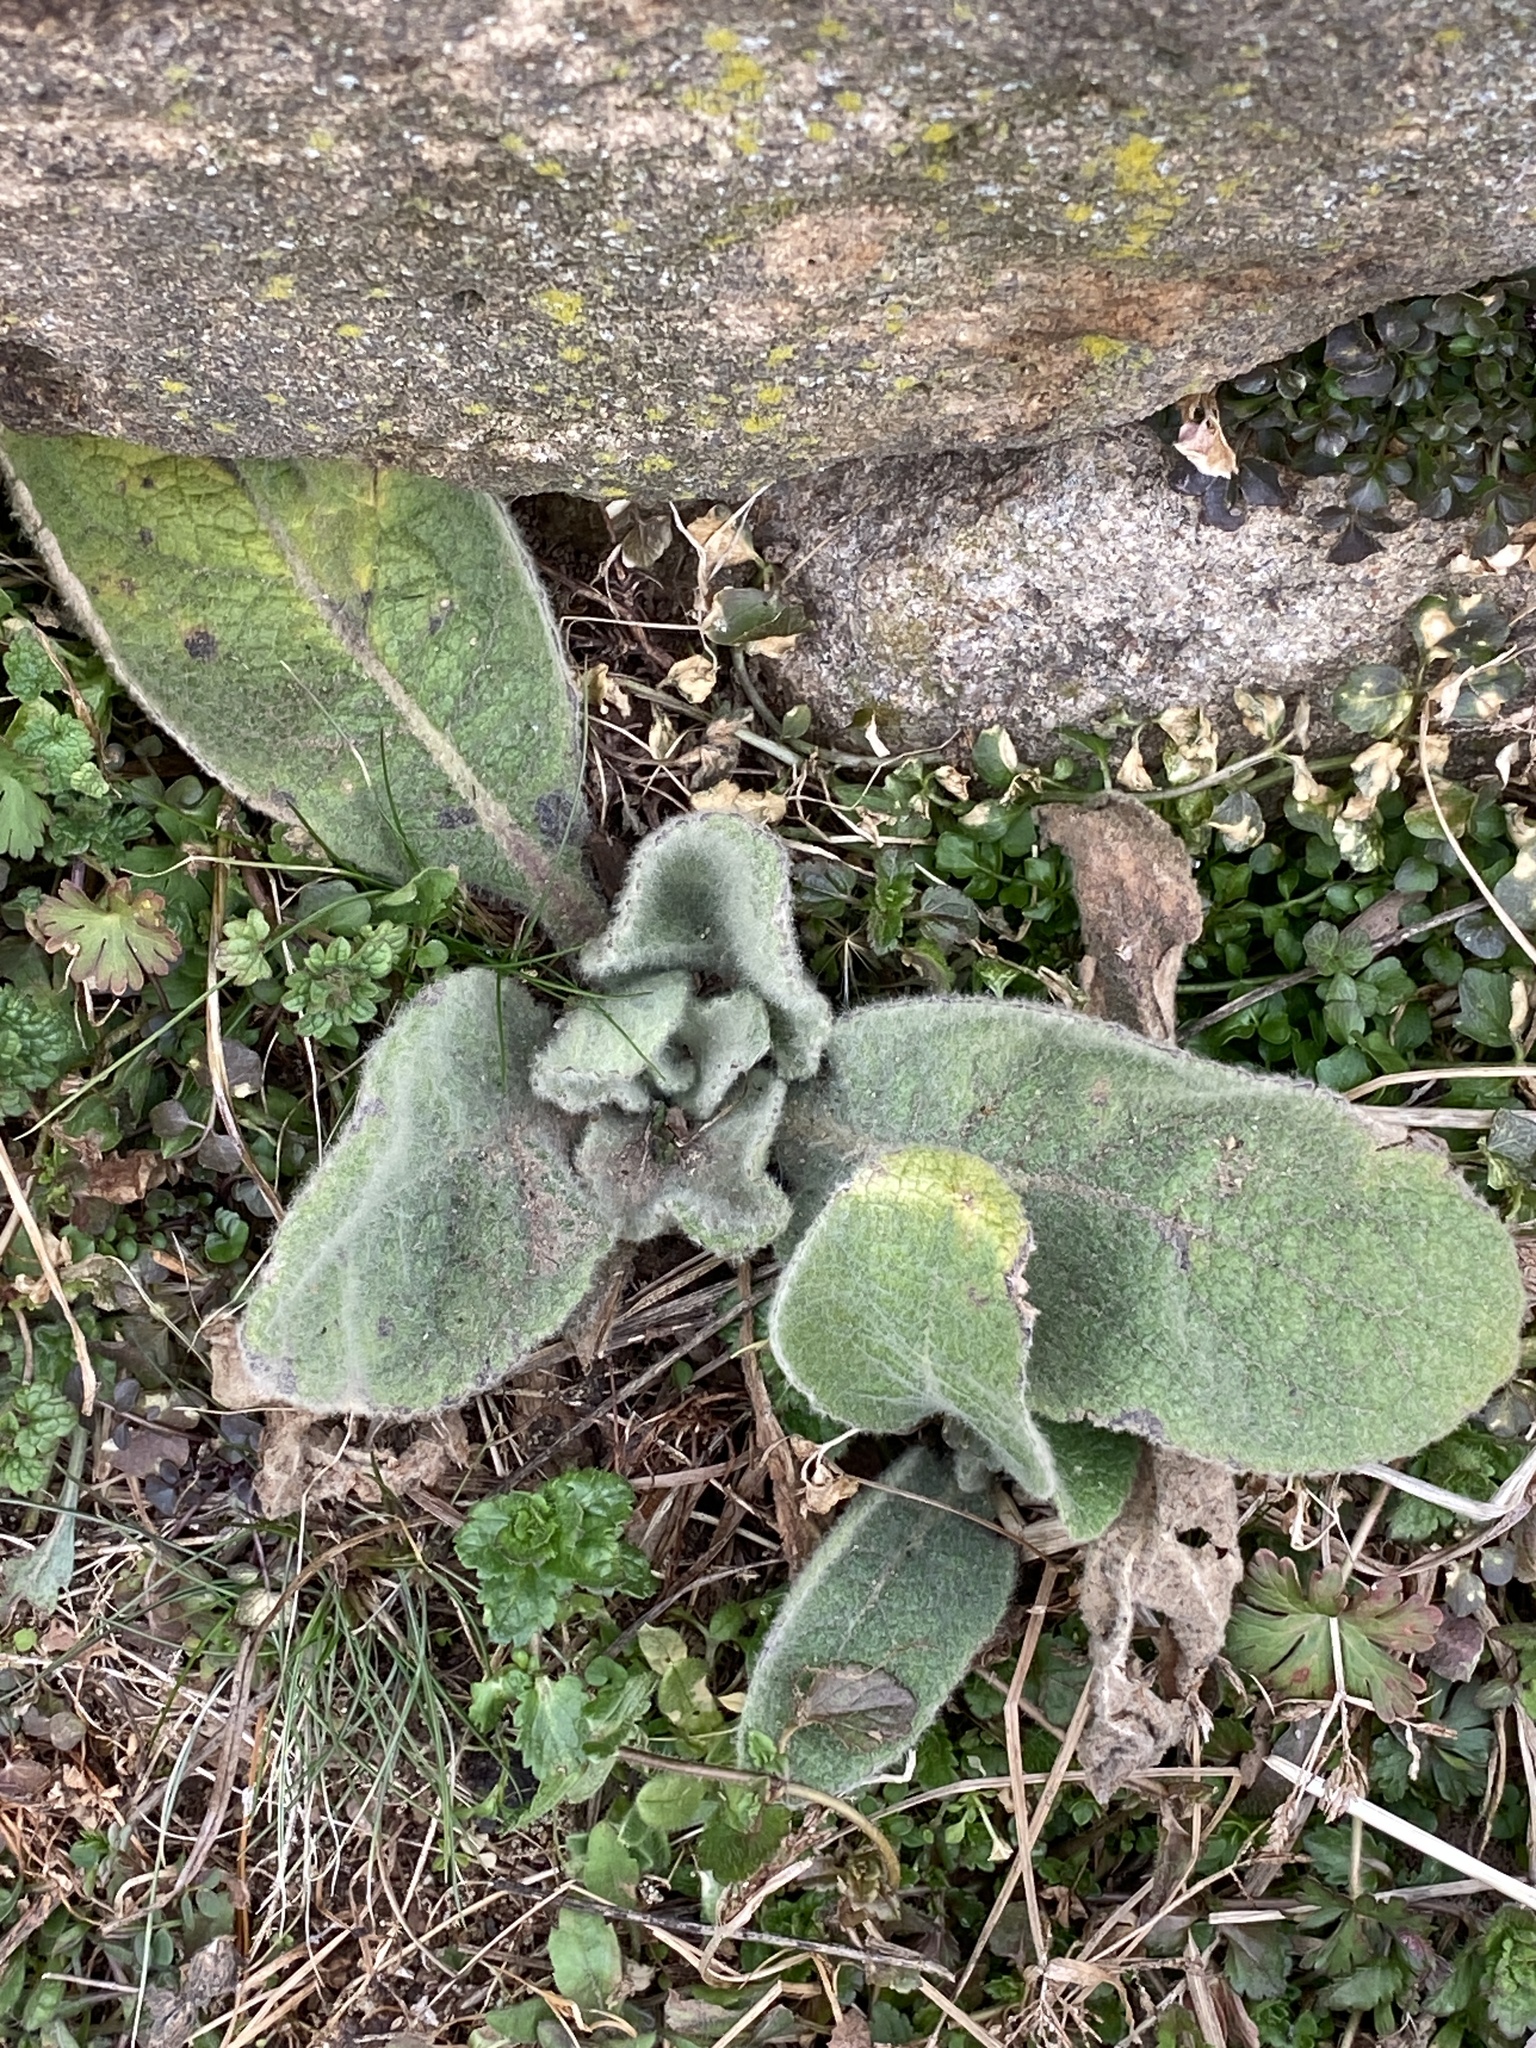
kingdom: Plantae
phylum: Tracheophyta
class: Magnoliopsida
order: Lamiales
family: Scrophulariaceae
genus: Verbascum
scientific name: Verbascum thapsus
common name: Common mullein
